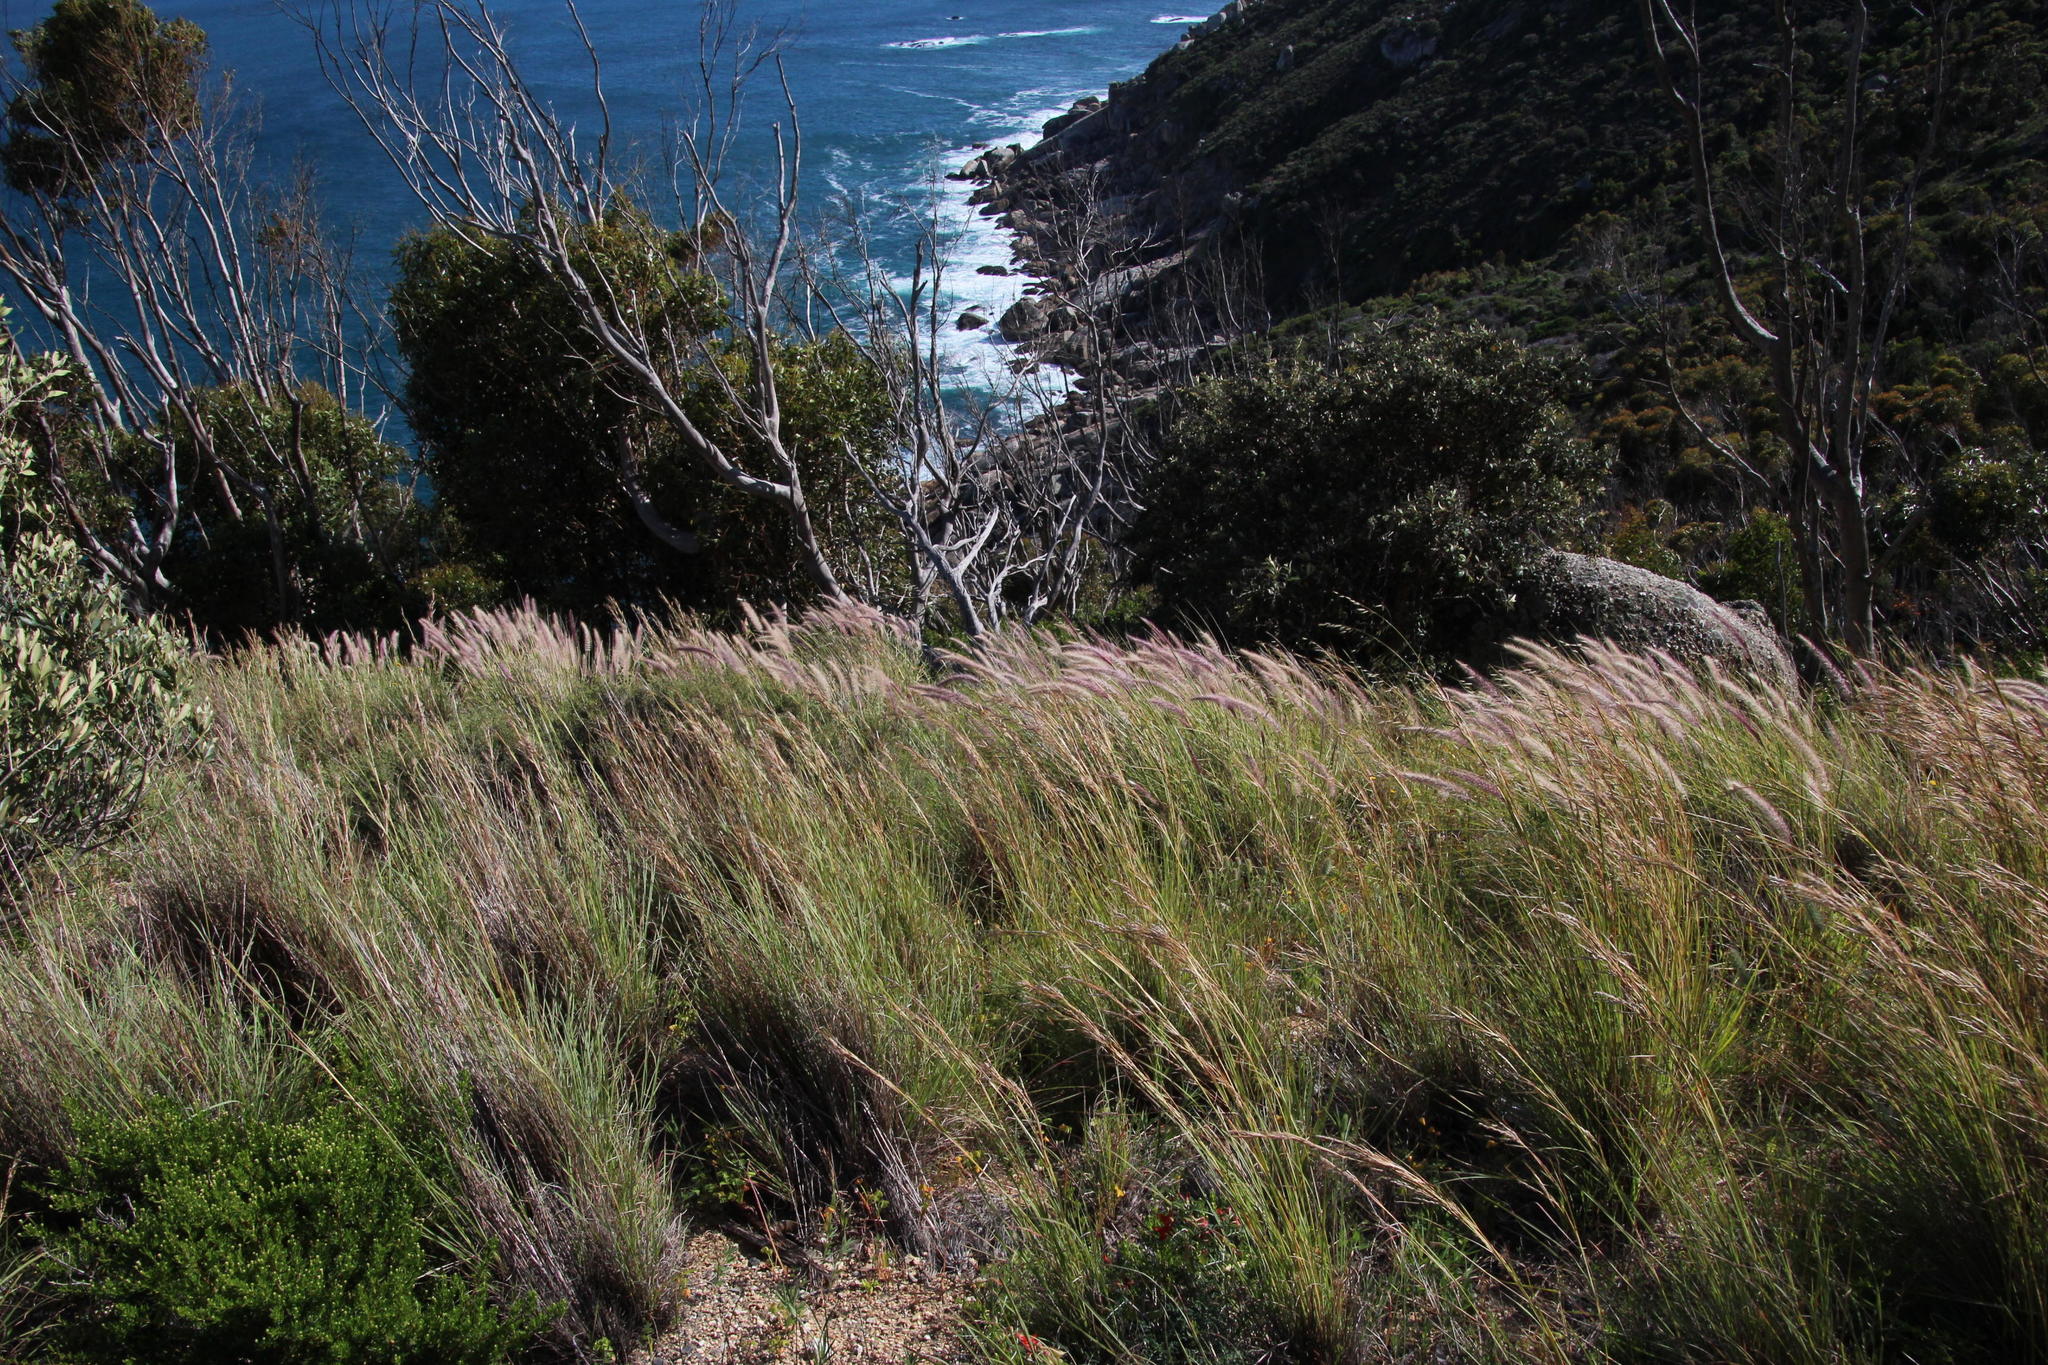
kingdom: Plantae
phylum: Tracheophyta
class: Liliopsida
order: Poales
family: Poaceae
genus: Cenchrus
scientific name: Cenchrus setaceus
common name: Crimson fountaingrass
